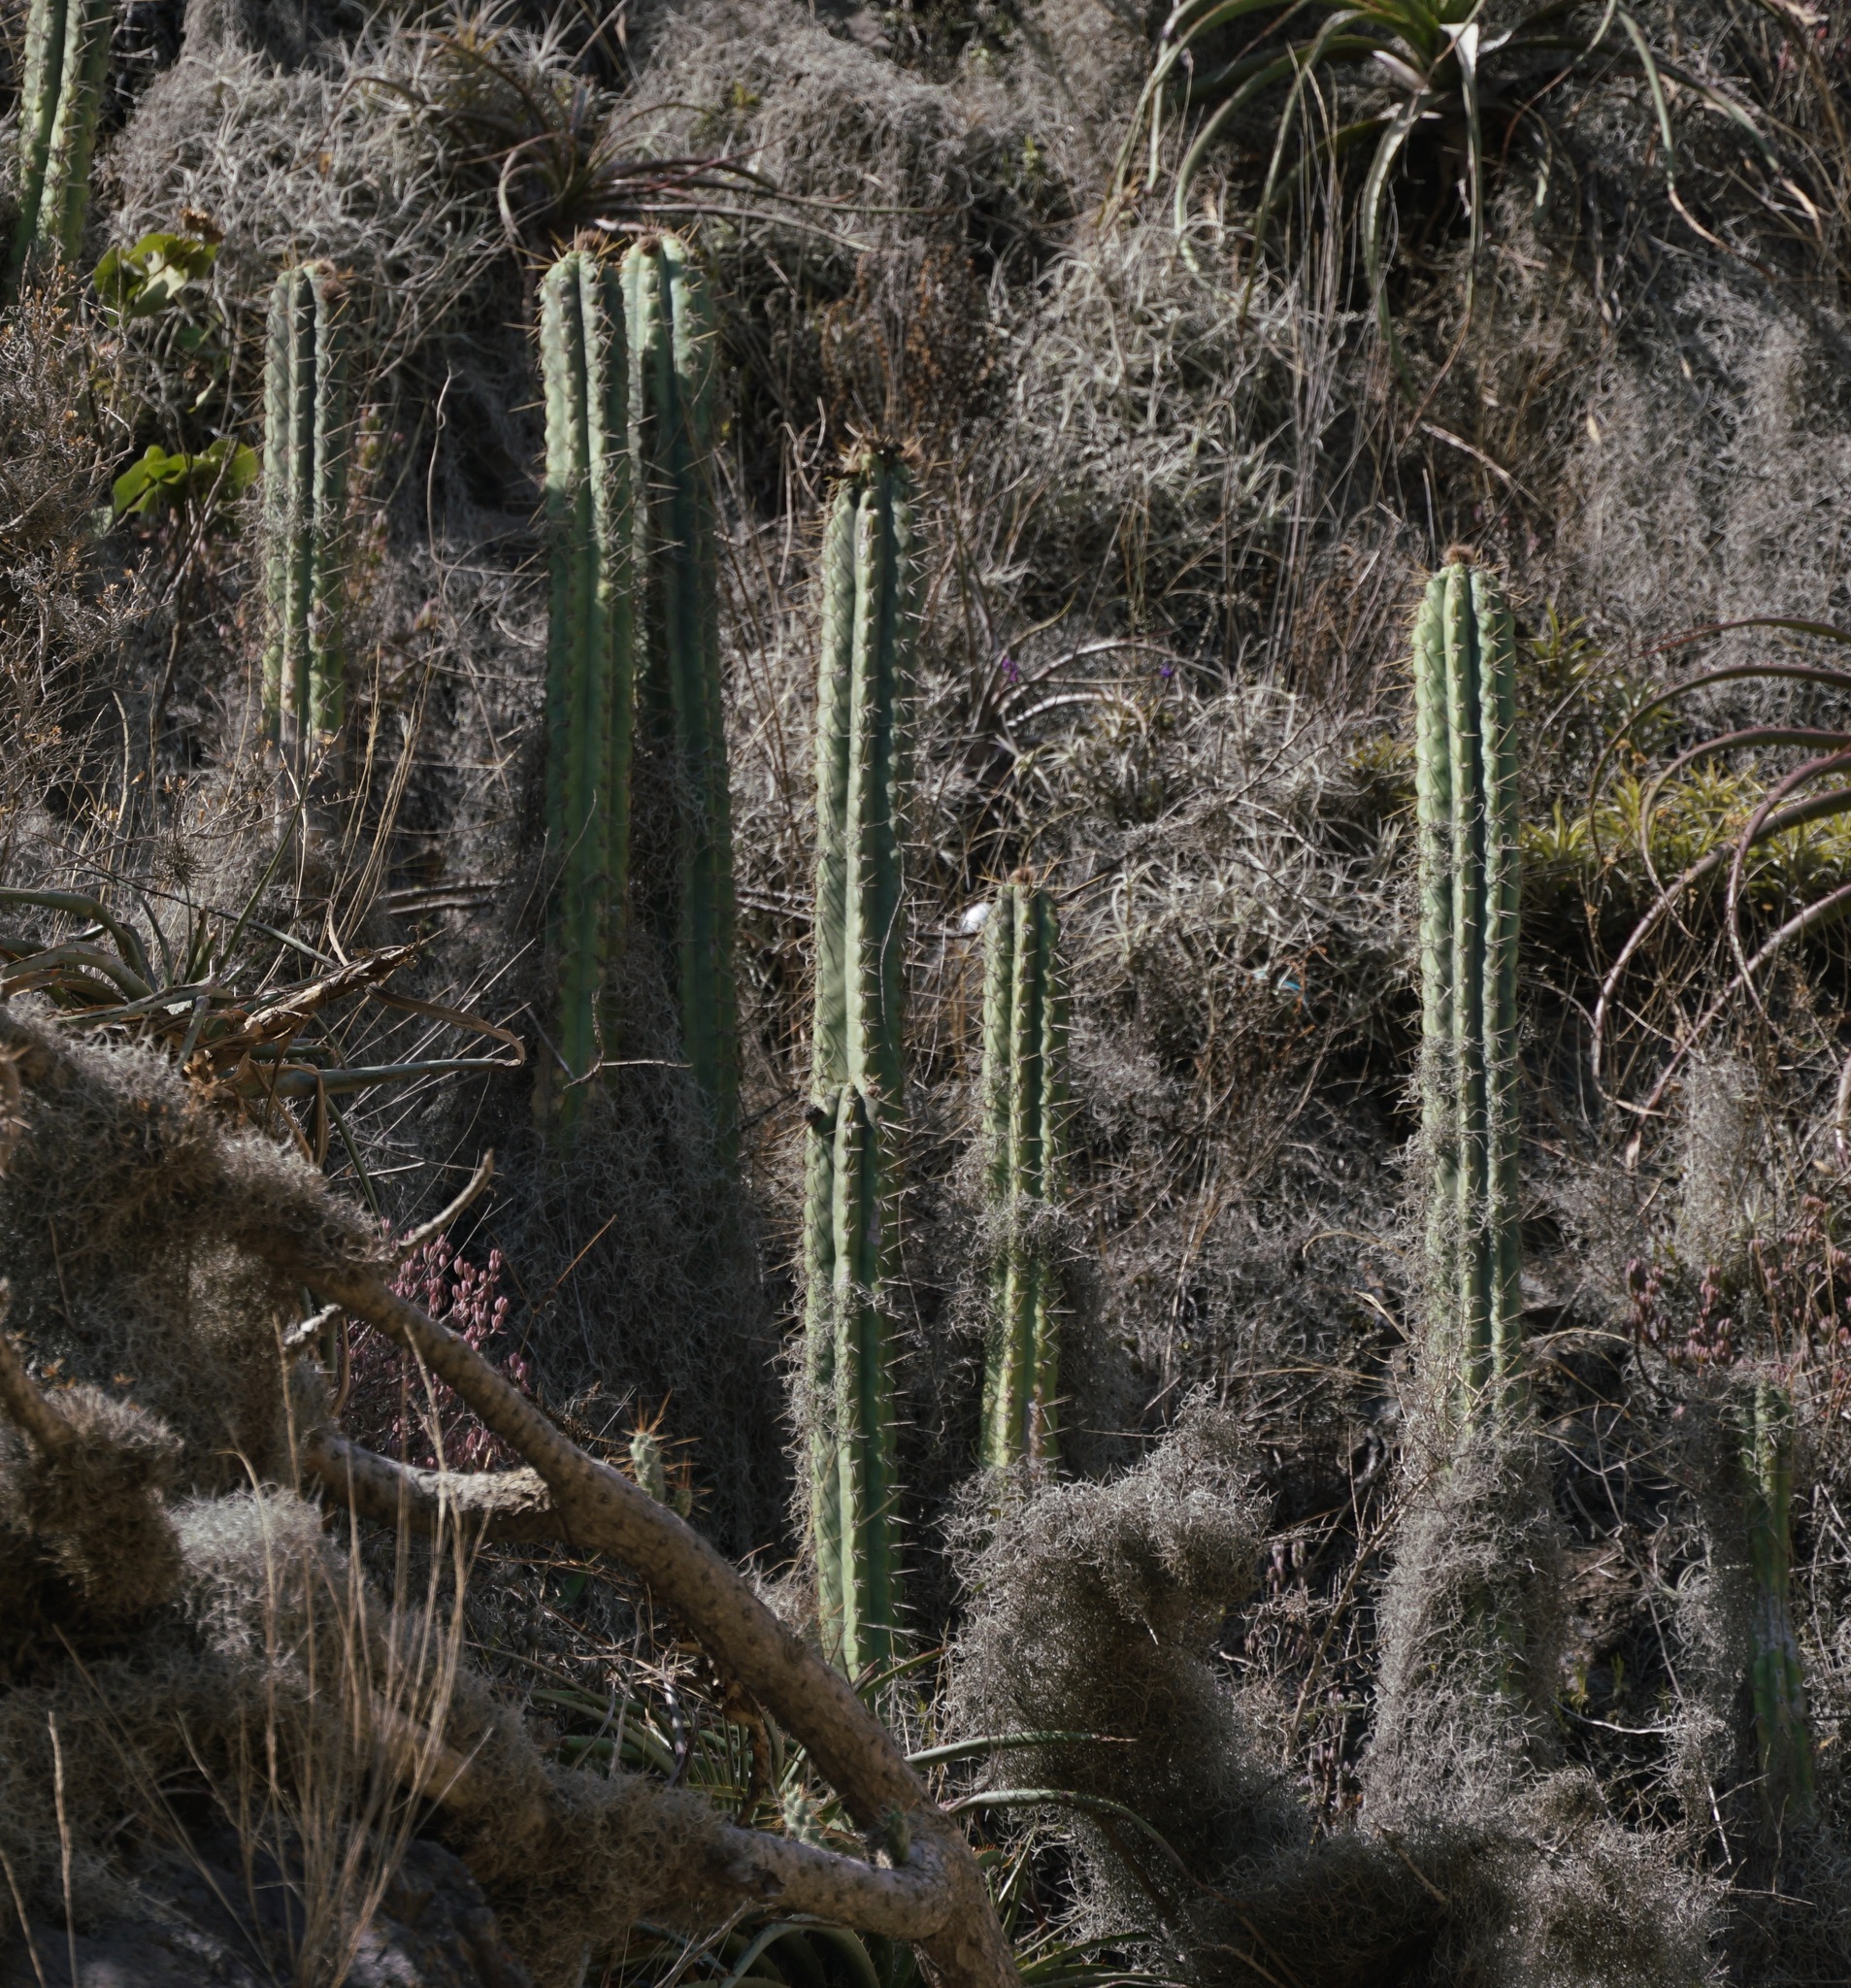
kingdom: Plantae
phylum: Tracheophyta
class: Magnoliopsida
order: Caryophyllales
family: Cactaceae
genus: Trichocereus
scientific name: Trichocereus cuzcoensis
